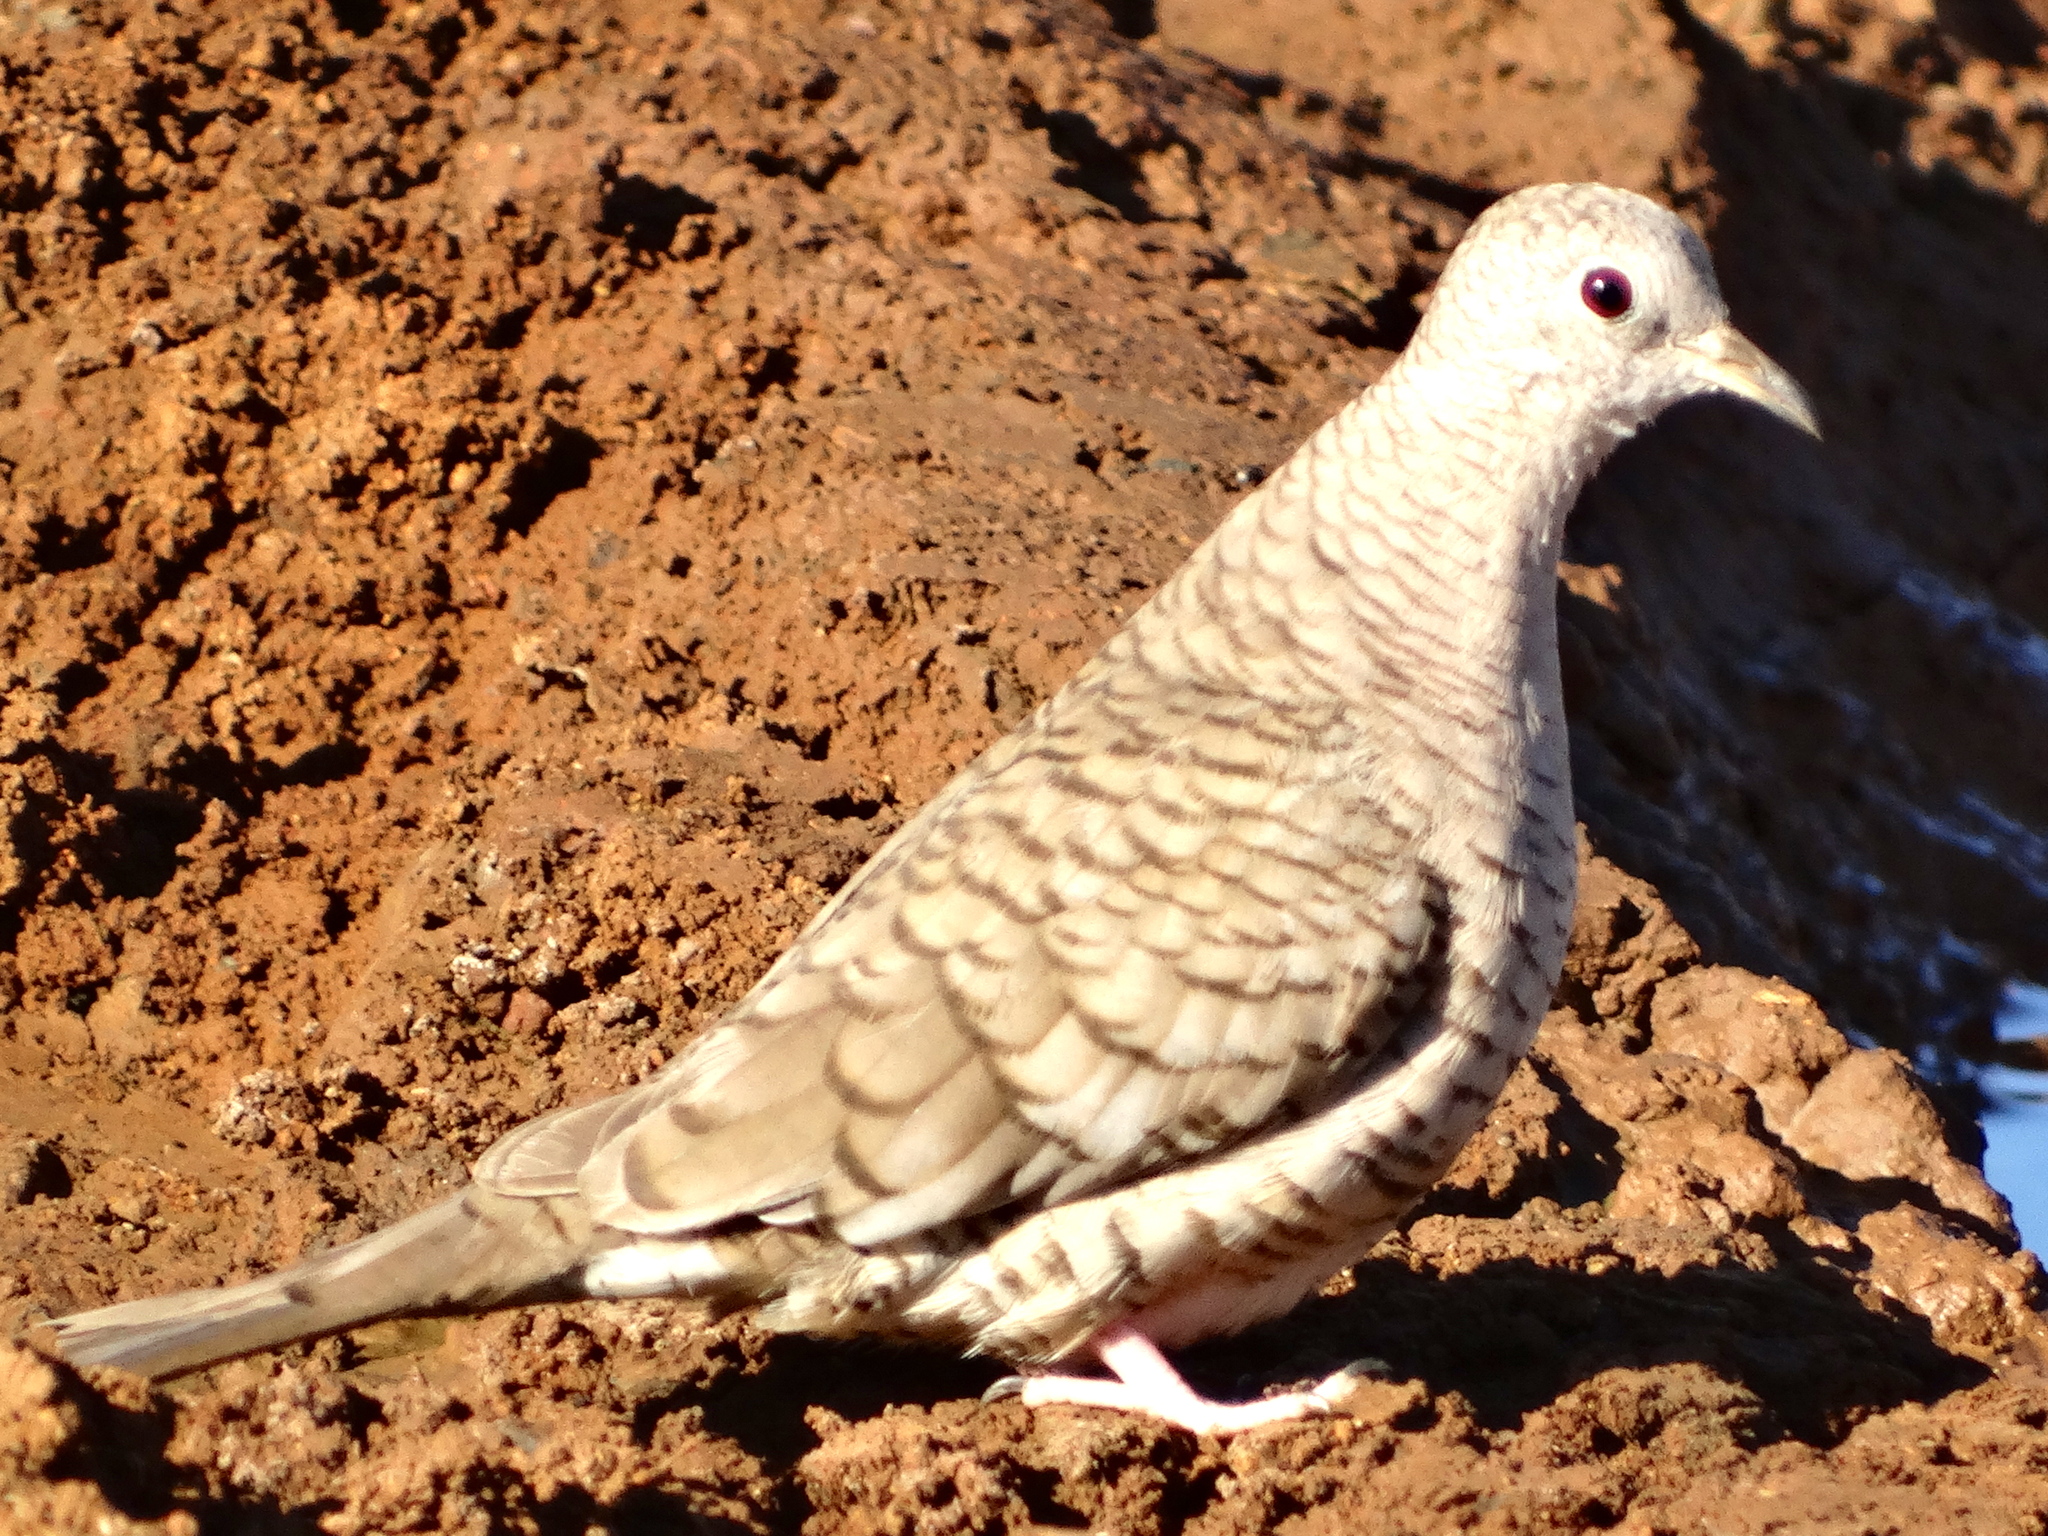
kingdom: Animalia
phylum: Chordata
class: Aves
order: Columbiformes
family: Columbidae
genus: Columbina
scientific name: Columbina inca
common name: Inca dove
